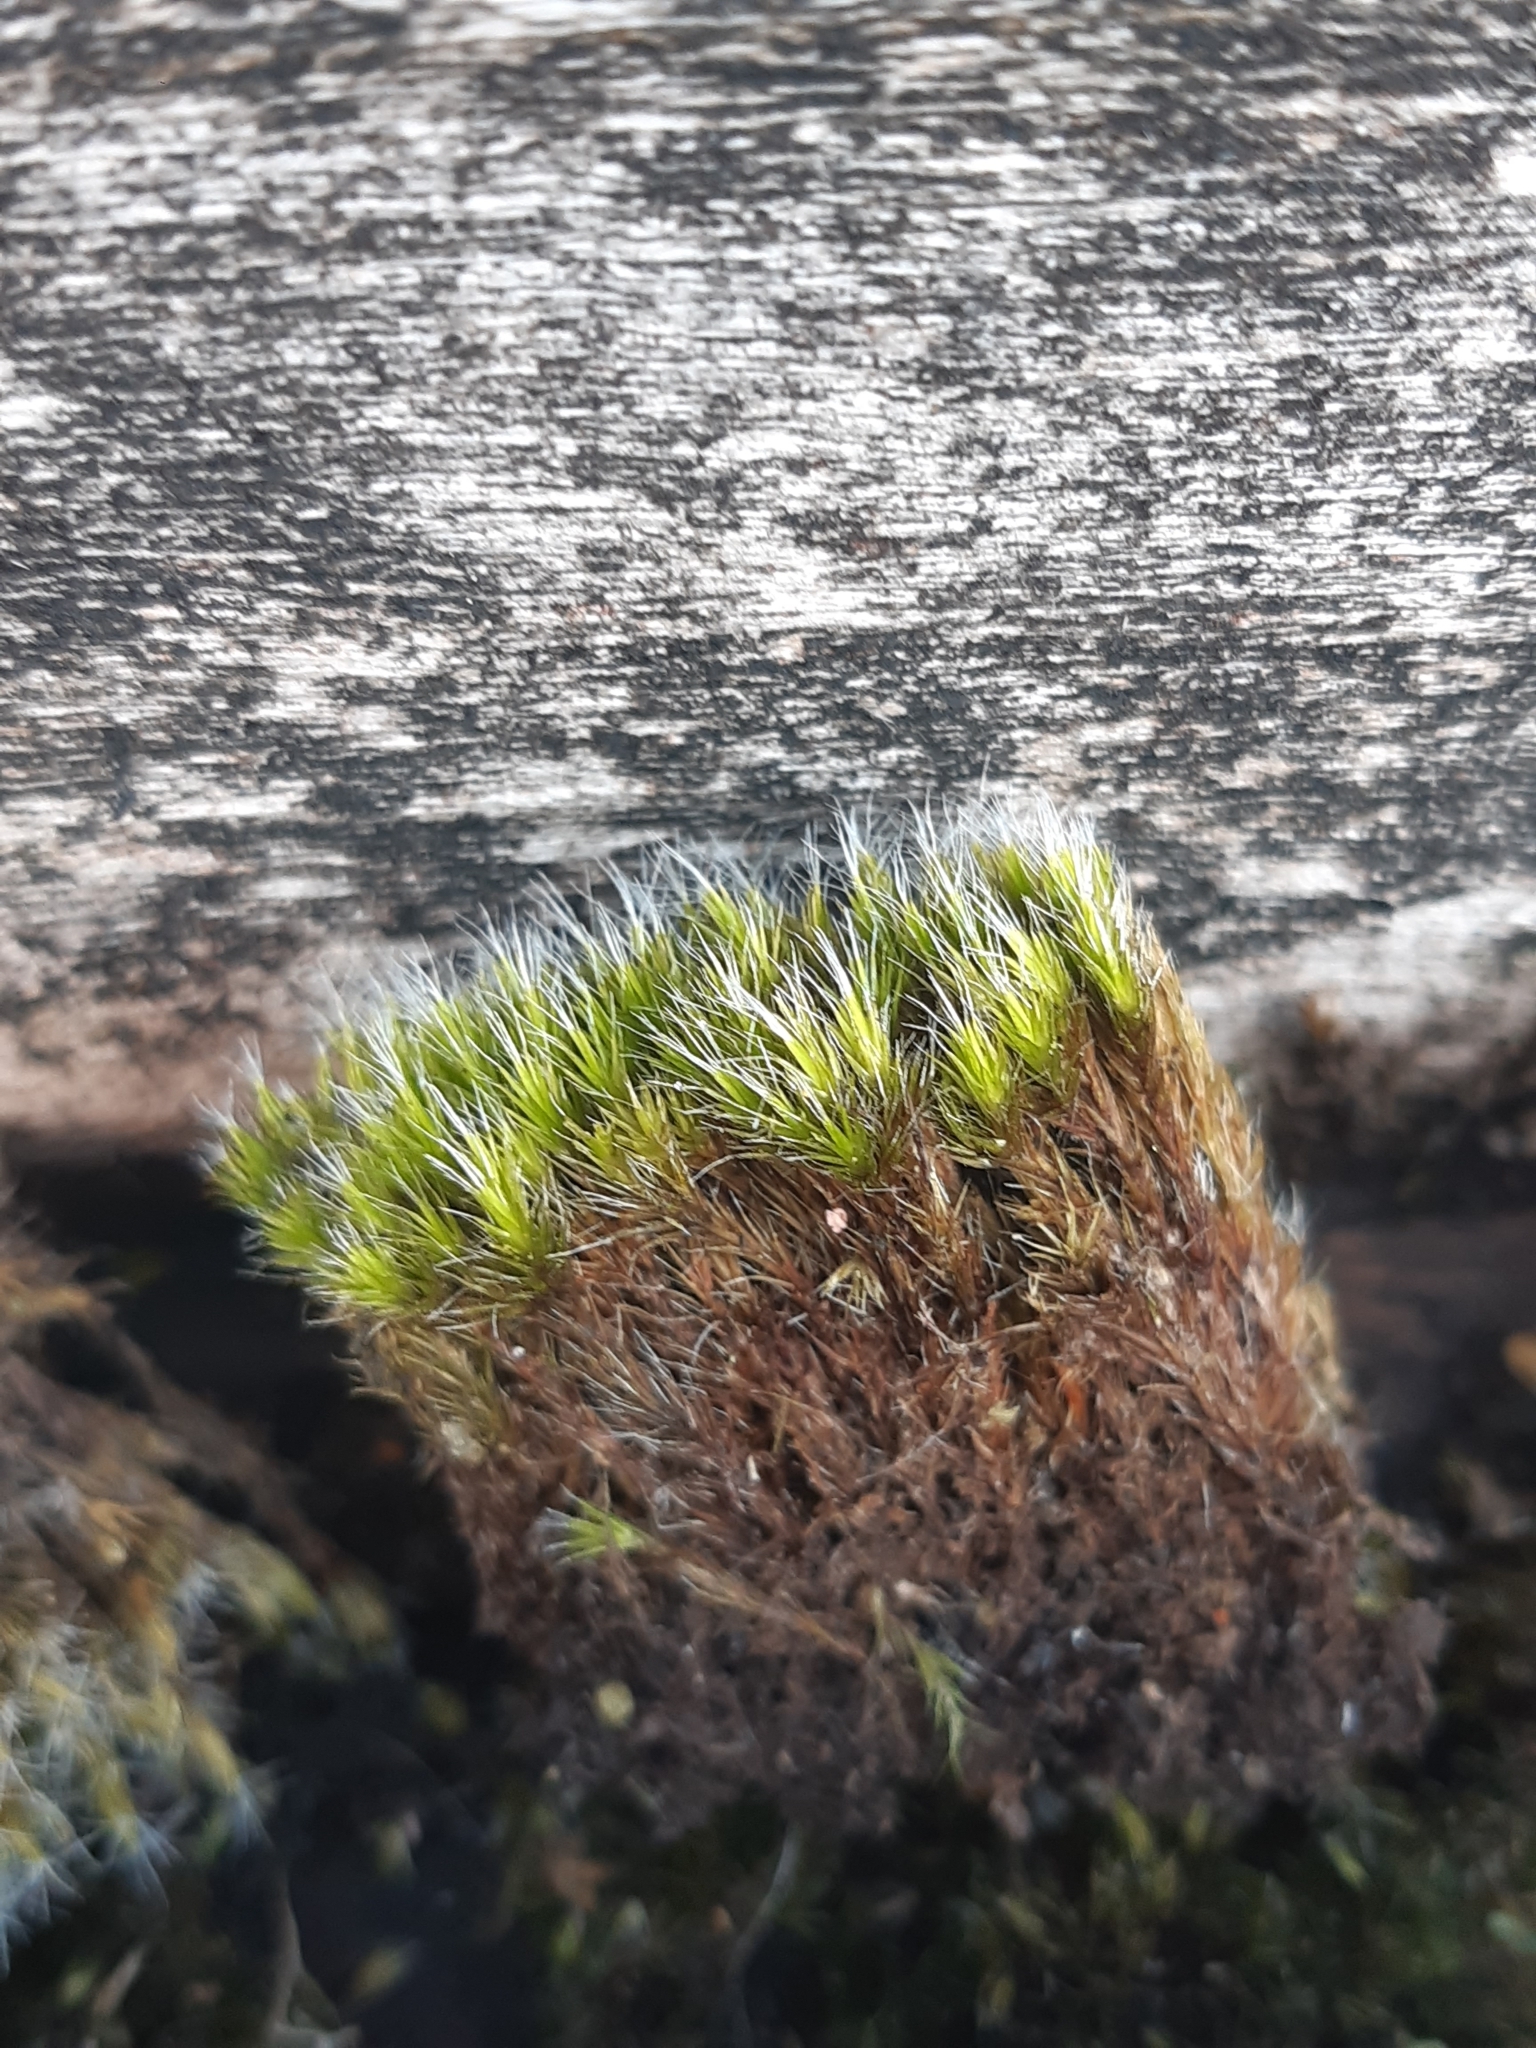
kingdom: Plantae
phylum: Bryophyta
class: Bryopsida
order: Dicranales
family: Leucobryaceae
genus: Campylopus
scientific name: Campylopus introflexus
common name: Heath star moss
